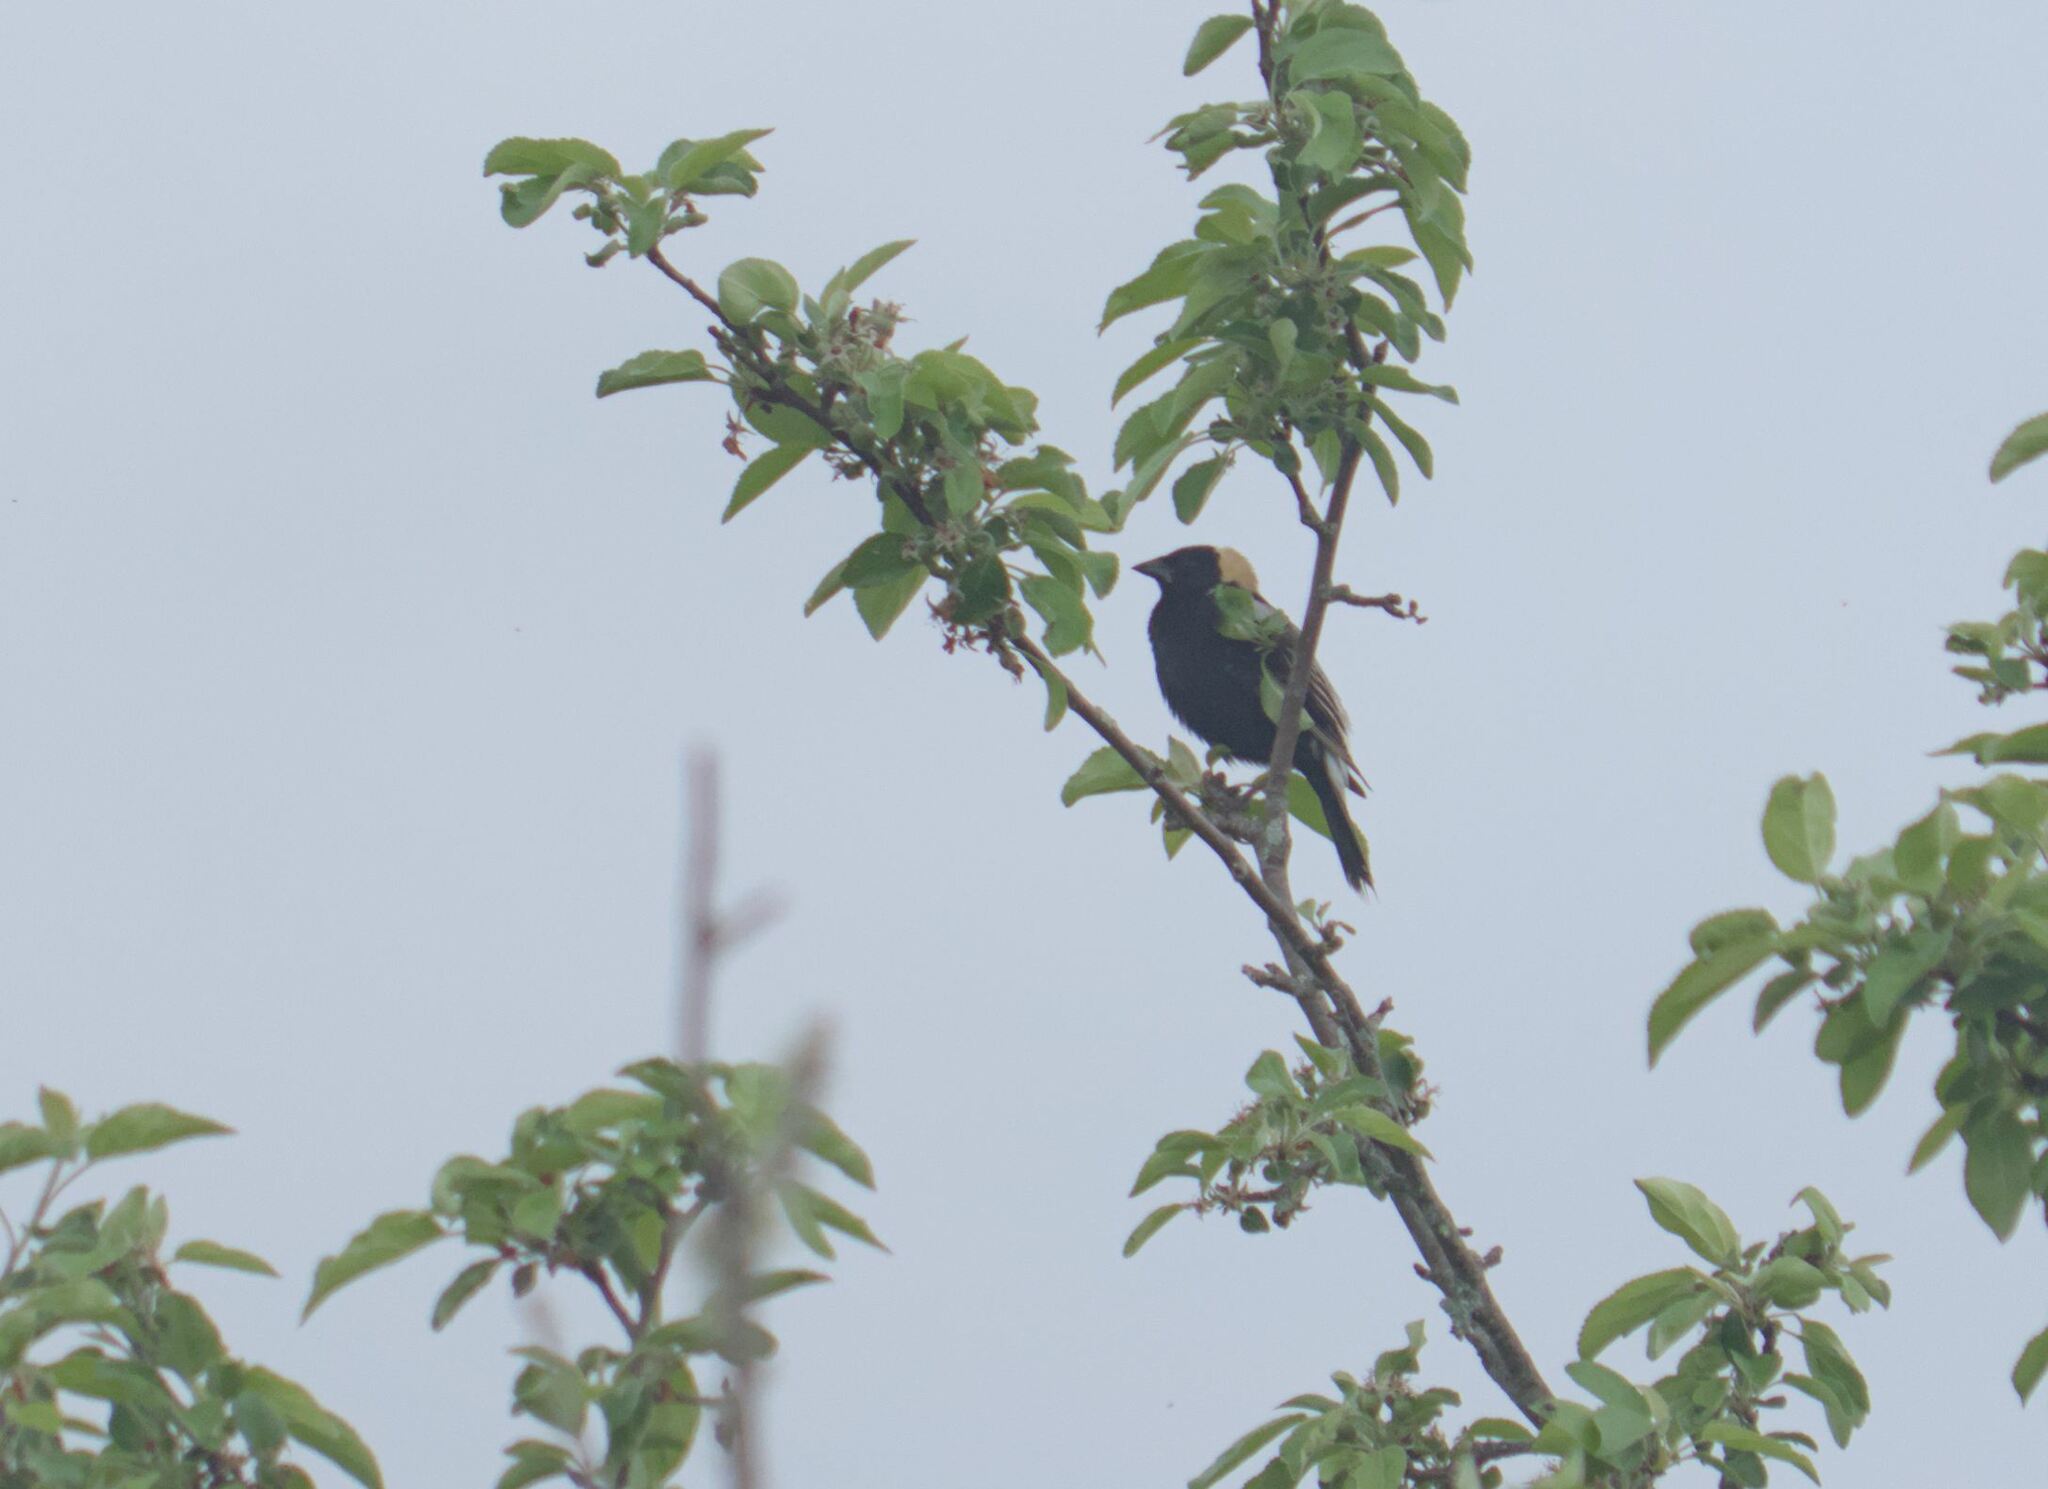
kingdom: Animalia
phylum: Chordata
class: Aves
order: Passeriformes
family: Icteridae
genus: Dolichonyx
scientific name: Dolichonyx oryzivorus
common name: Bobolink
